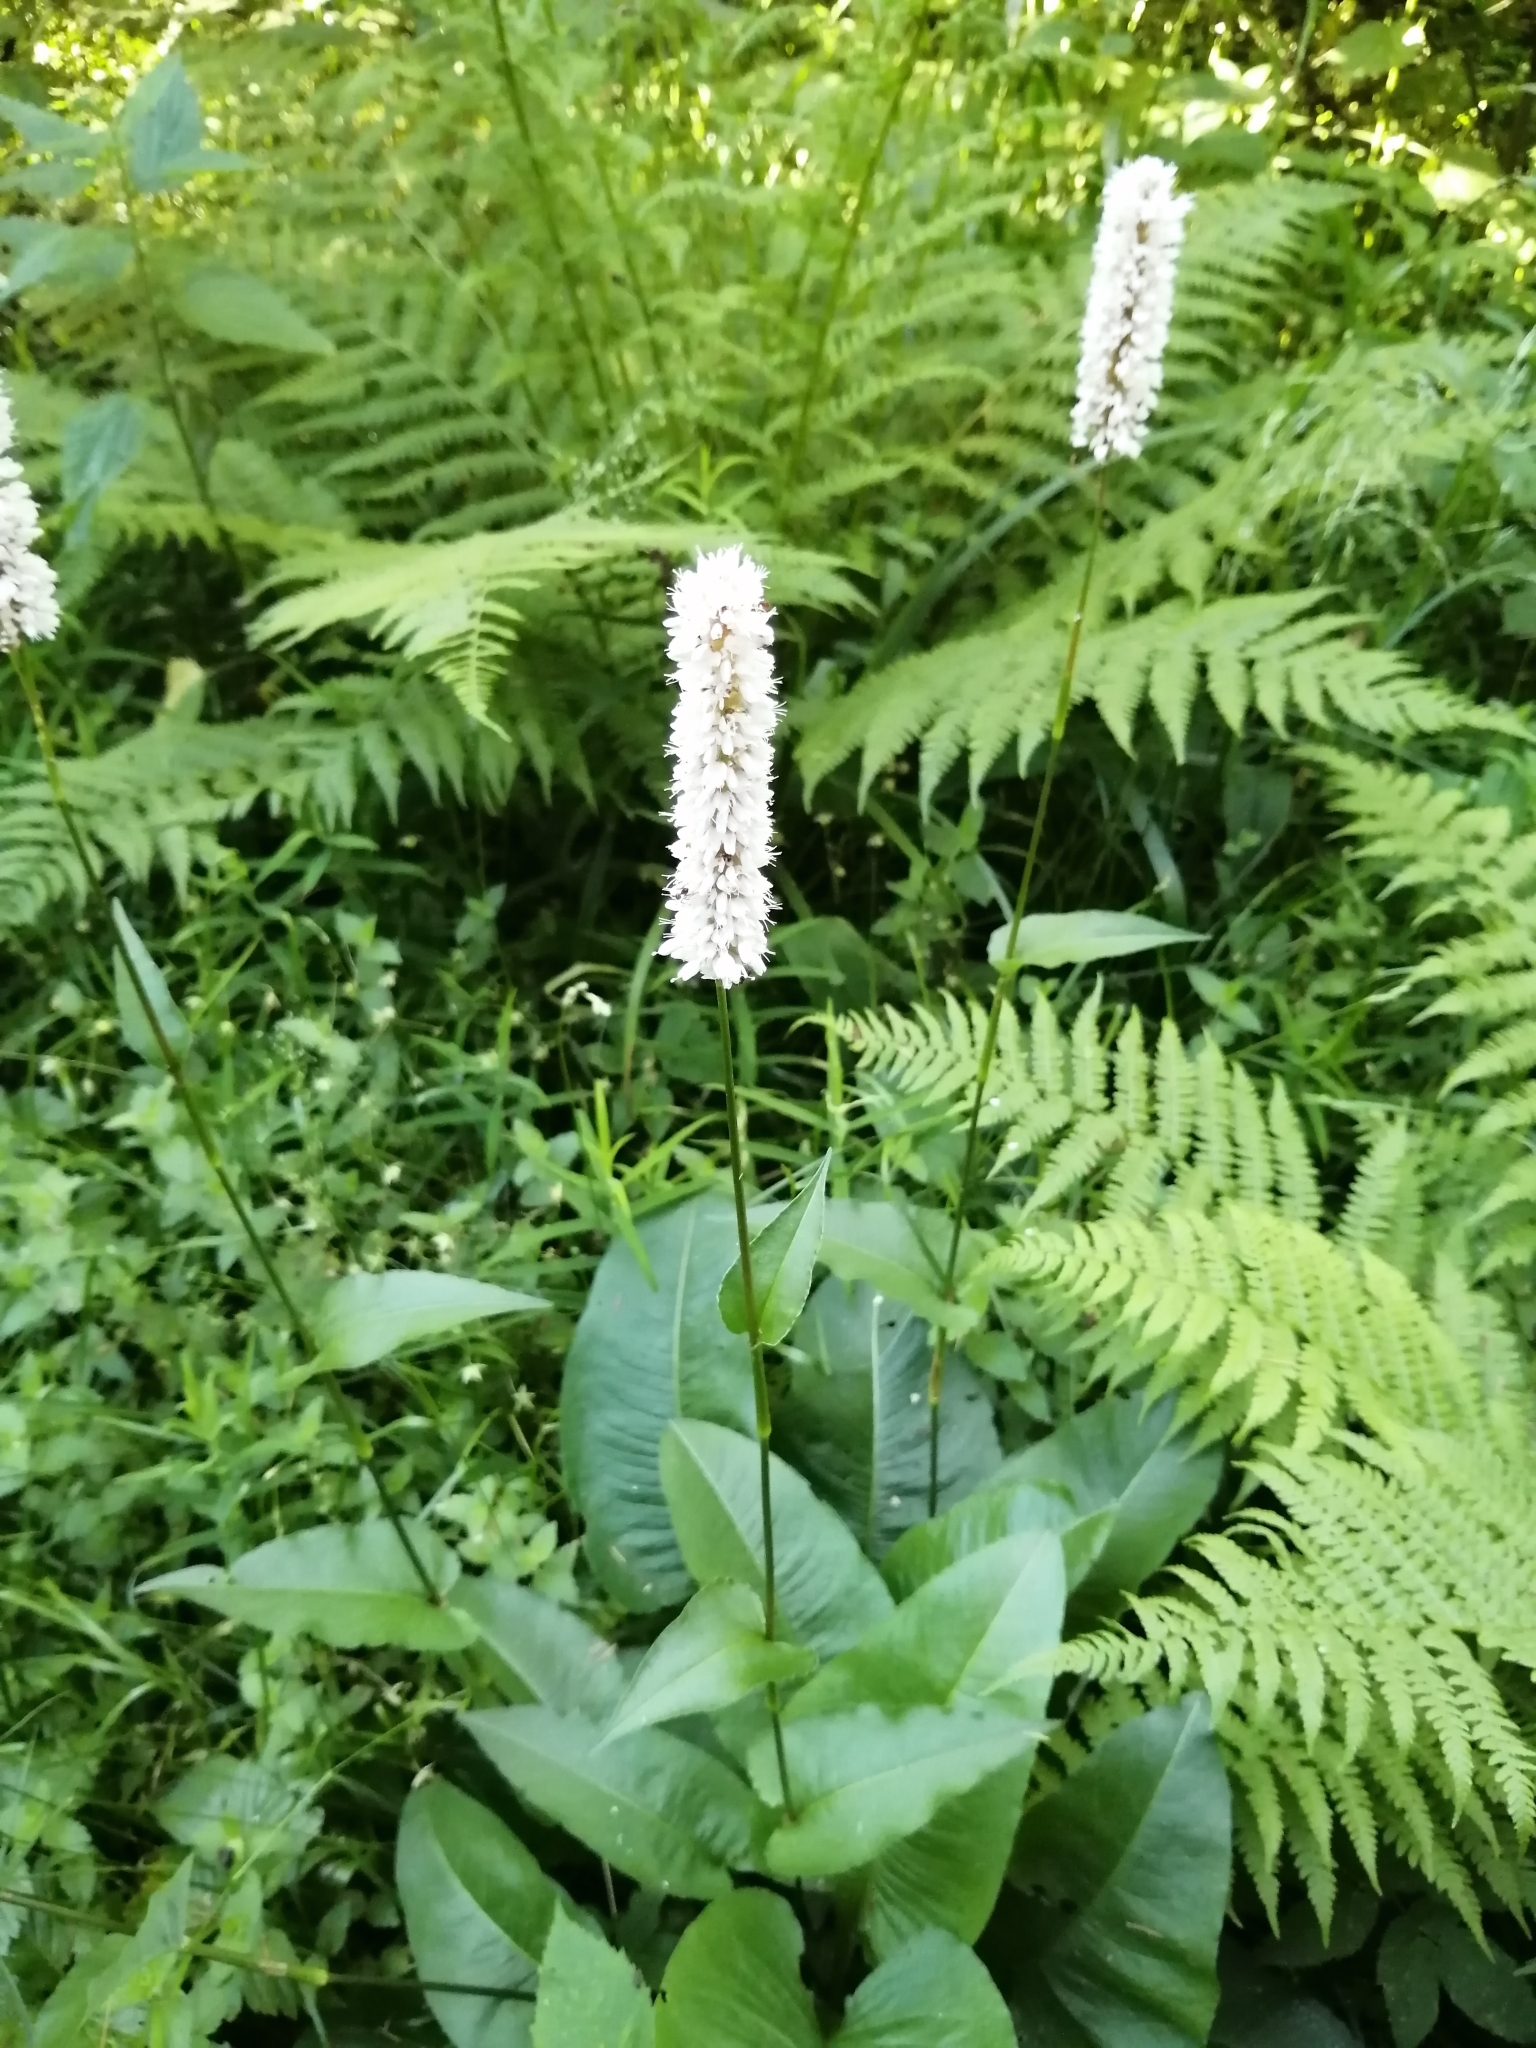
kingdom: Plantae
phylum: Tracheophyta
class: Magnoliopsida
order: Caryophyllales
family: Polygonaceae
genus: Bistorta
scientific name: Bistorta officinalis
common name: Common bistort
